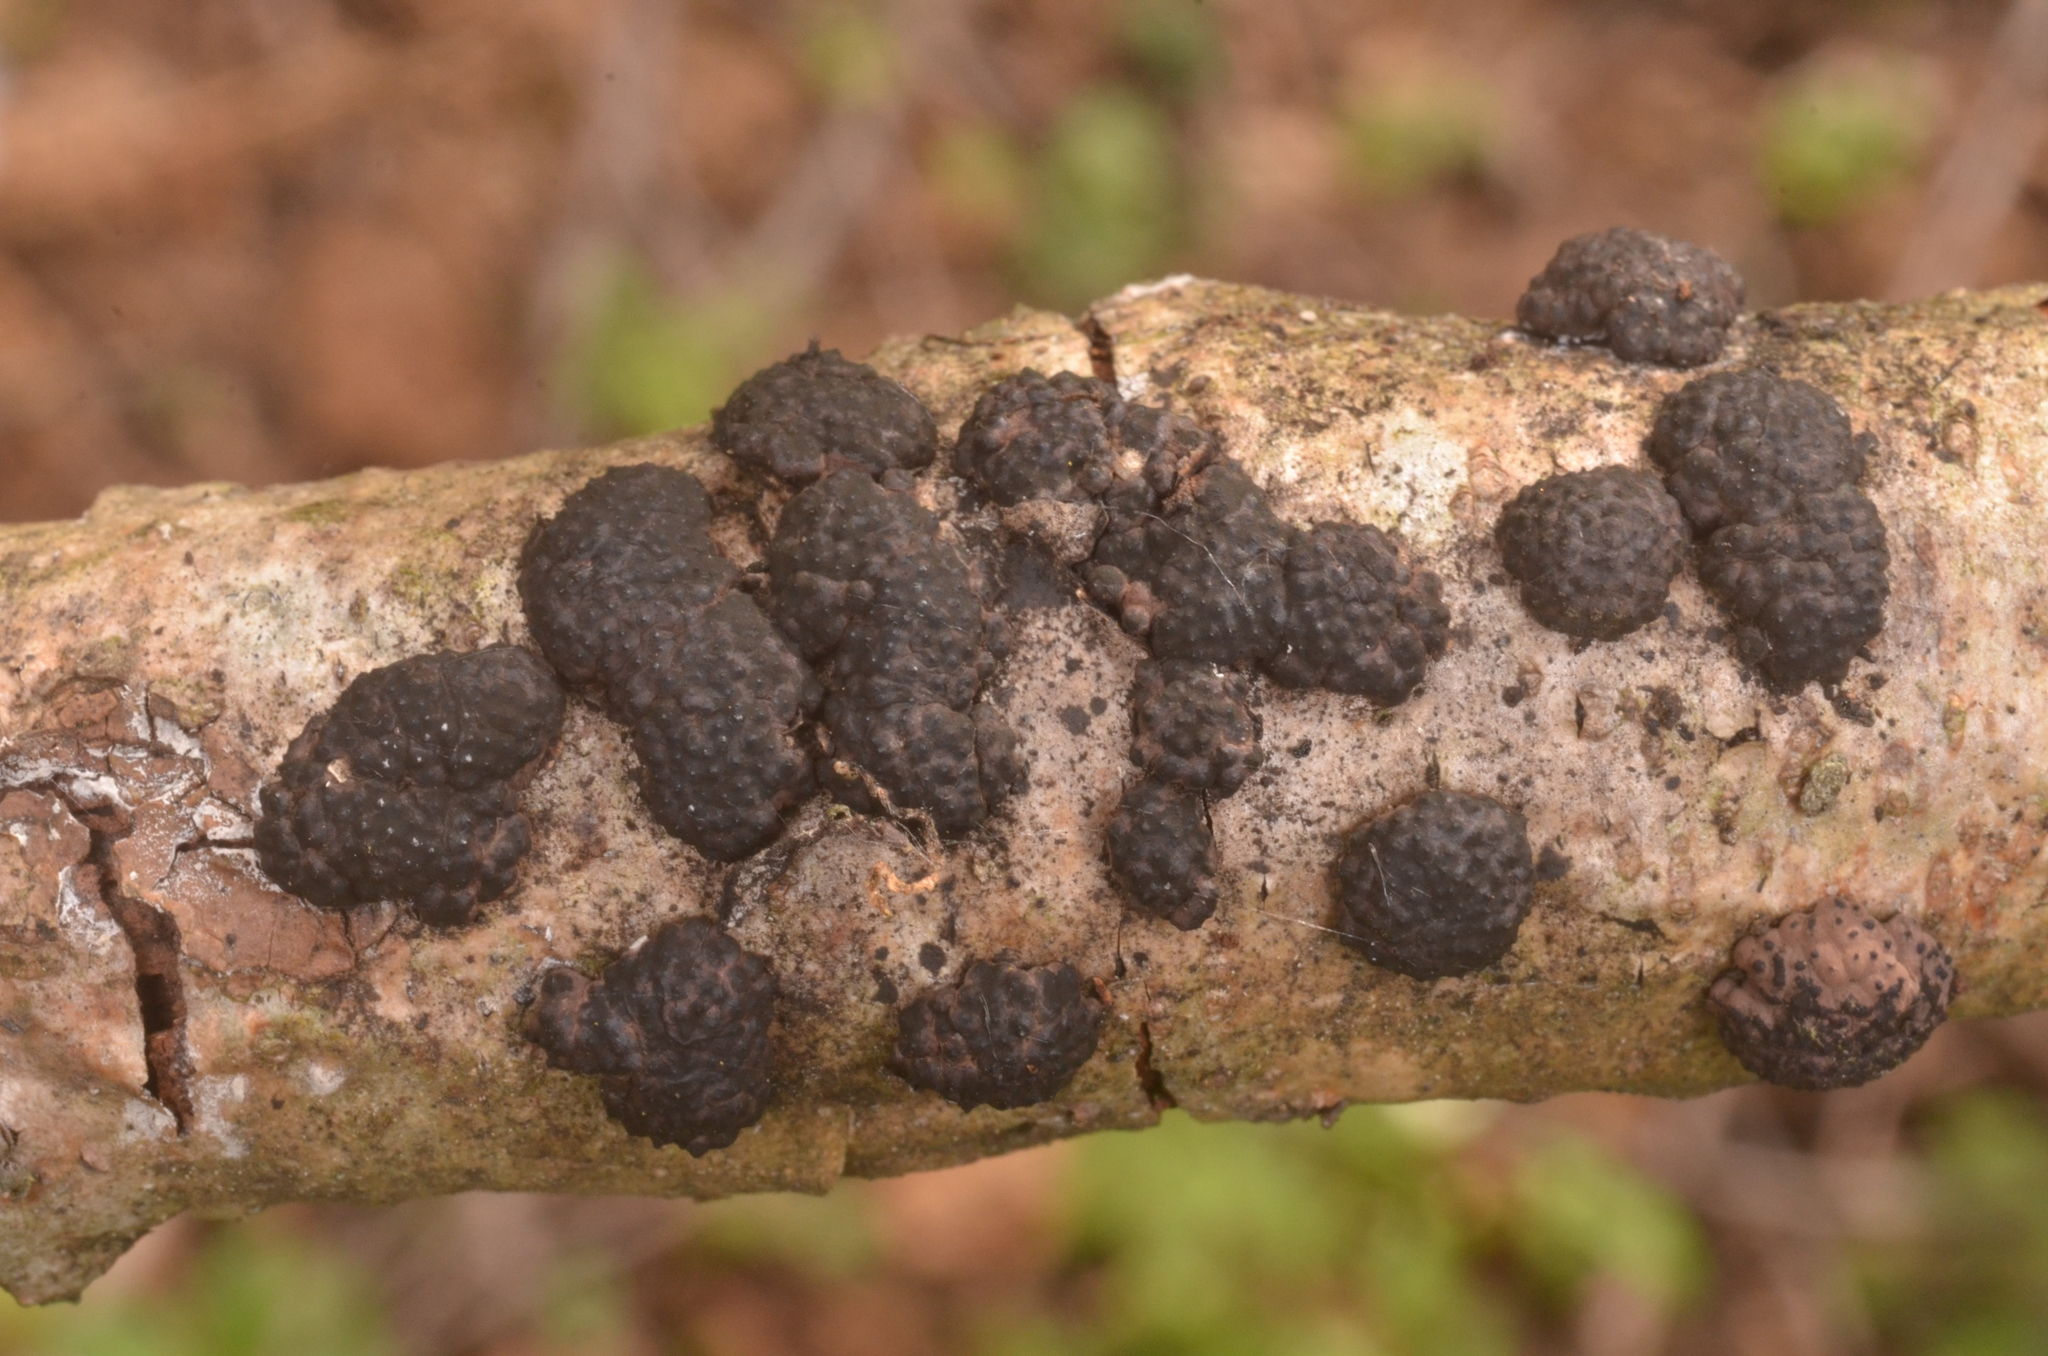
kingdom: Fungi
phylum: Ascomycota
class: Sordariomycetes
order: Xylariales
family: Hypoxylaceae
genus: Jackrogersella
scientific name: Jackrogersella multiformis
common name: Birch woodwart
